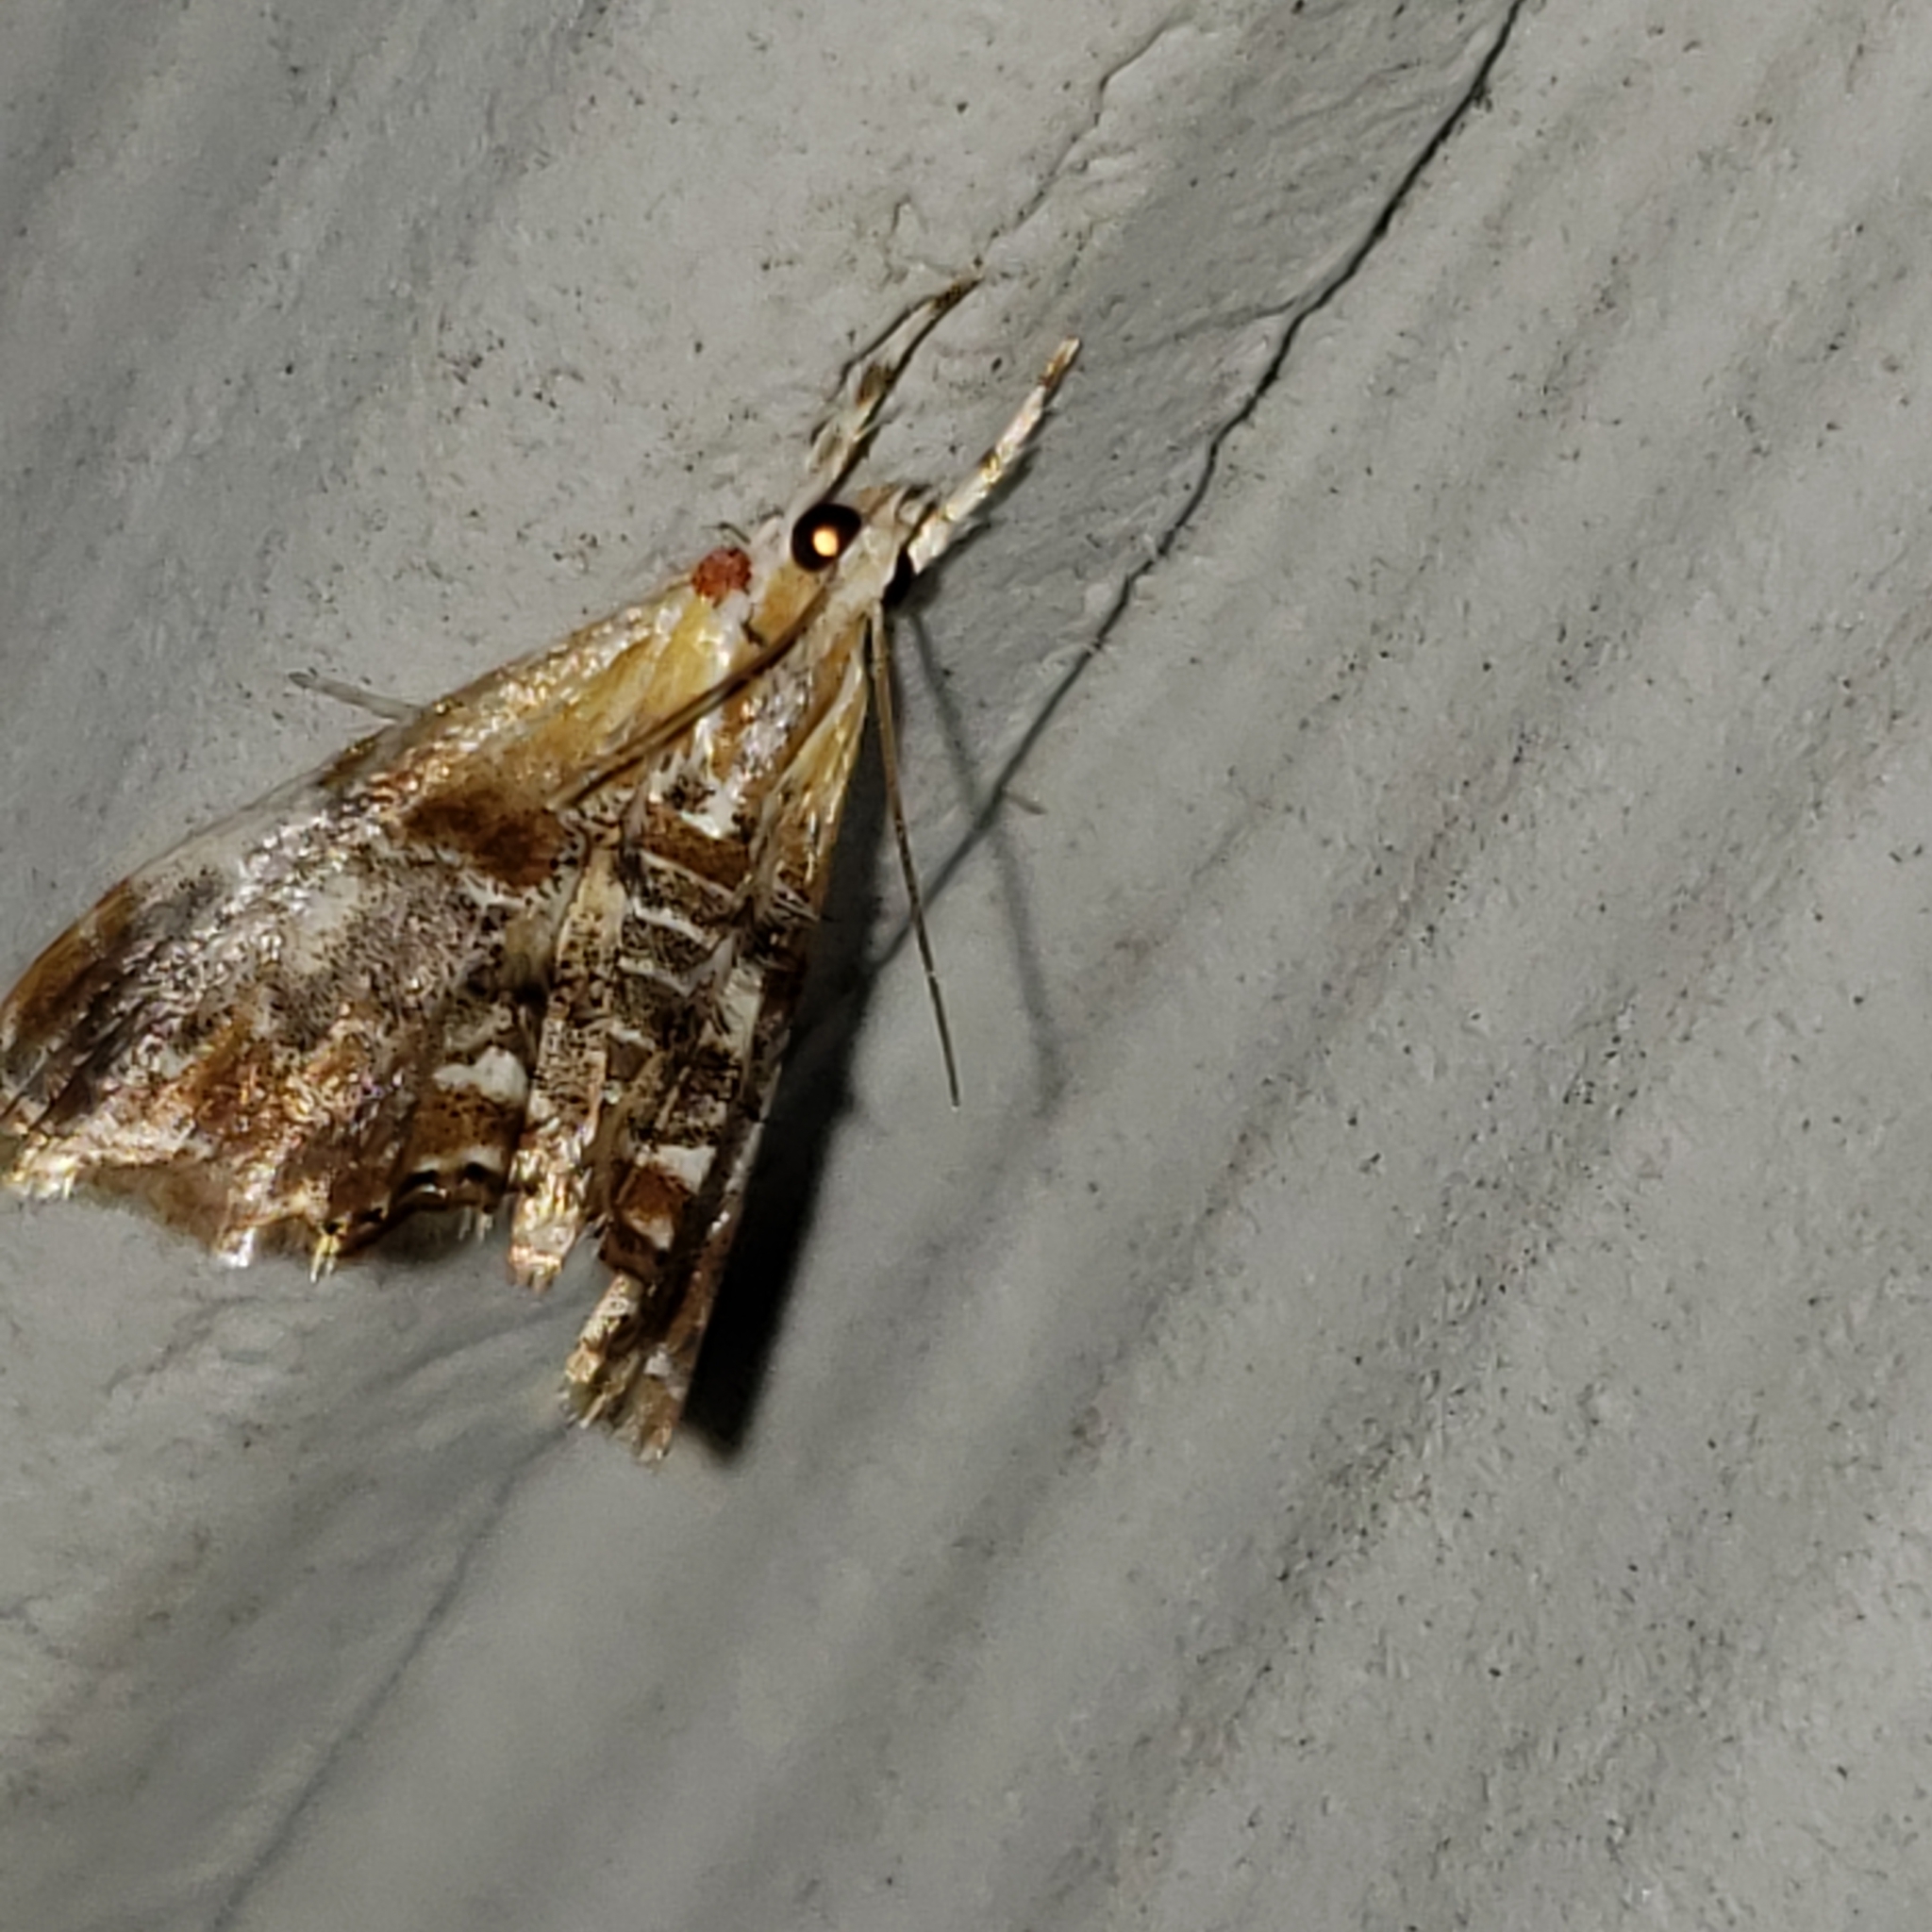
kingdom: Animalia
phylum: Arthropoda
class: Insecta
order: Lepidoptera
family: Crambidae
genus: Dicymolomia
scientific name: Dicymolomia julianalis
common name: Julia's dicymolomia moth
